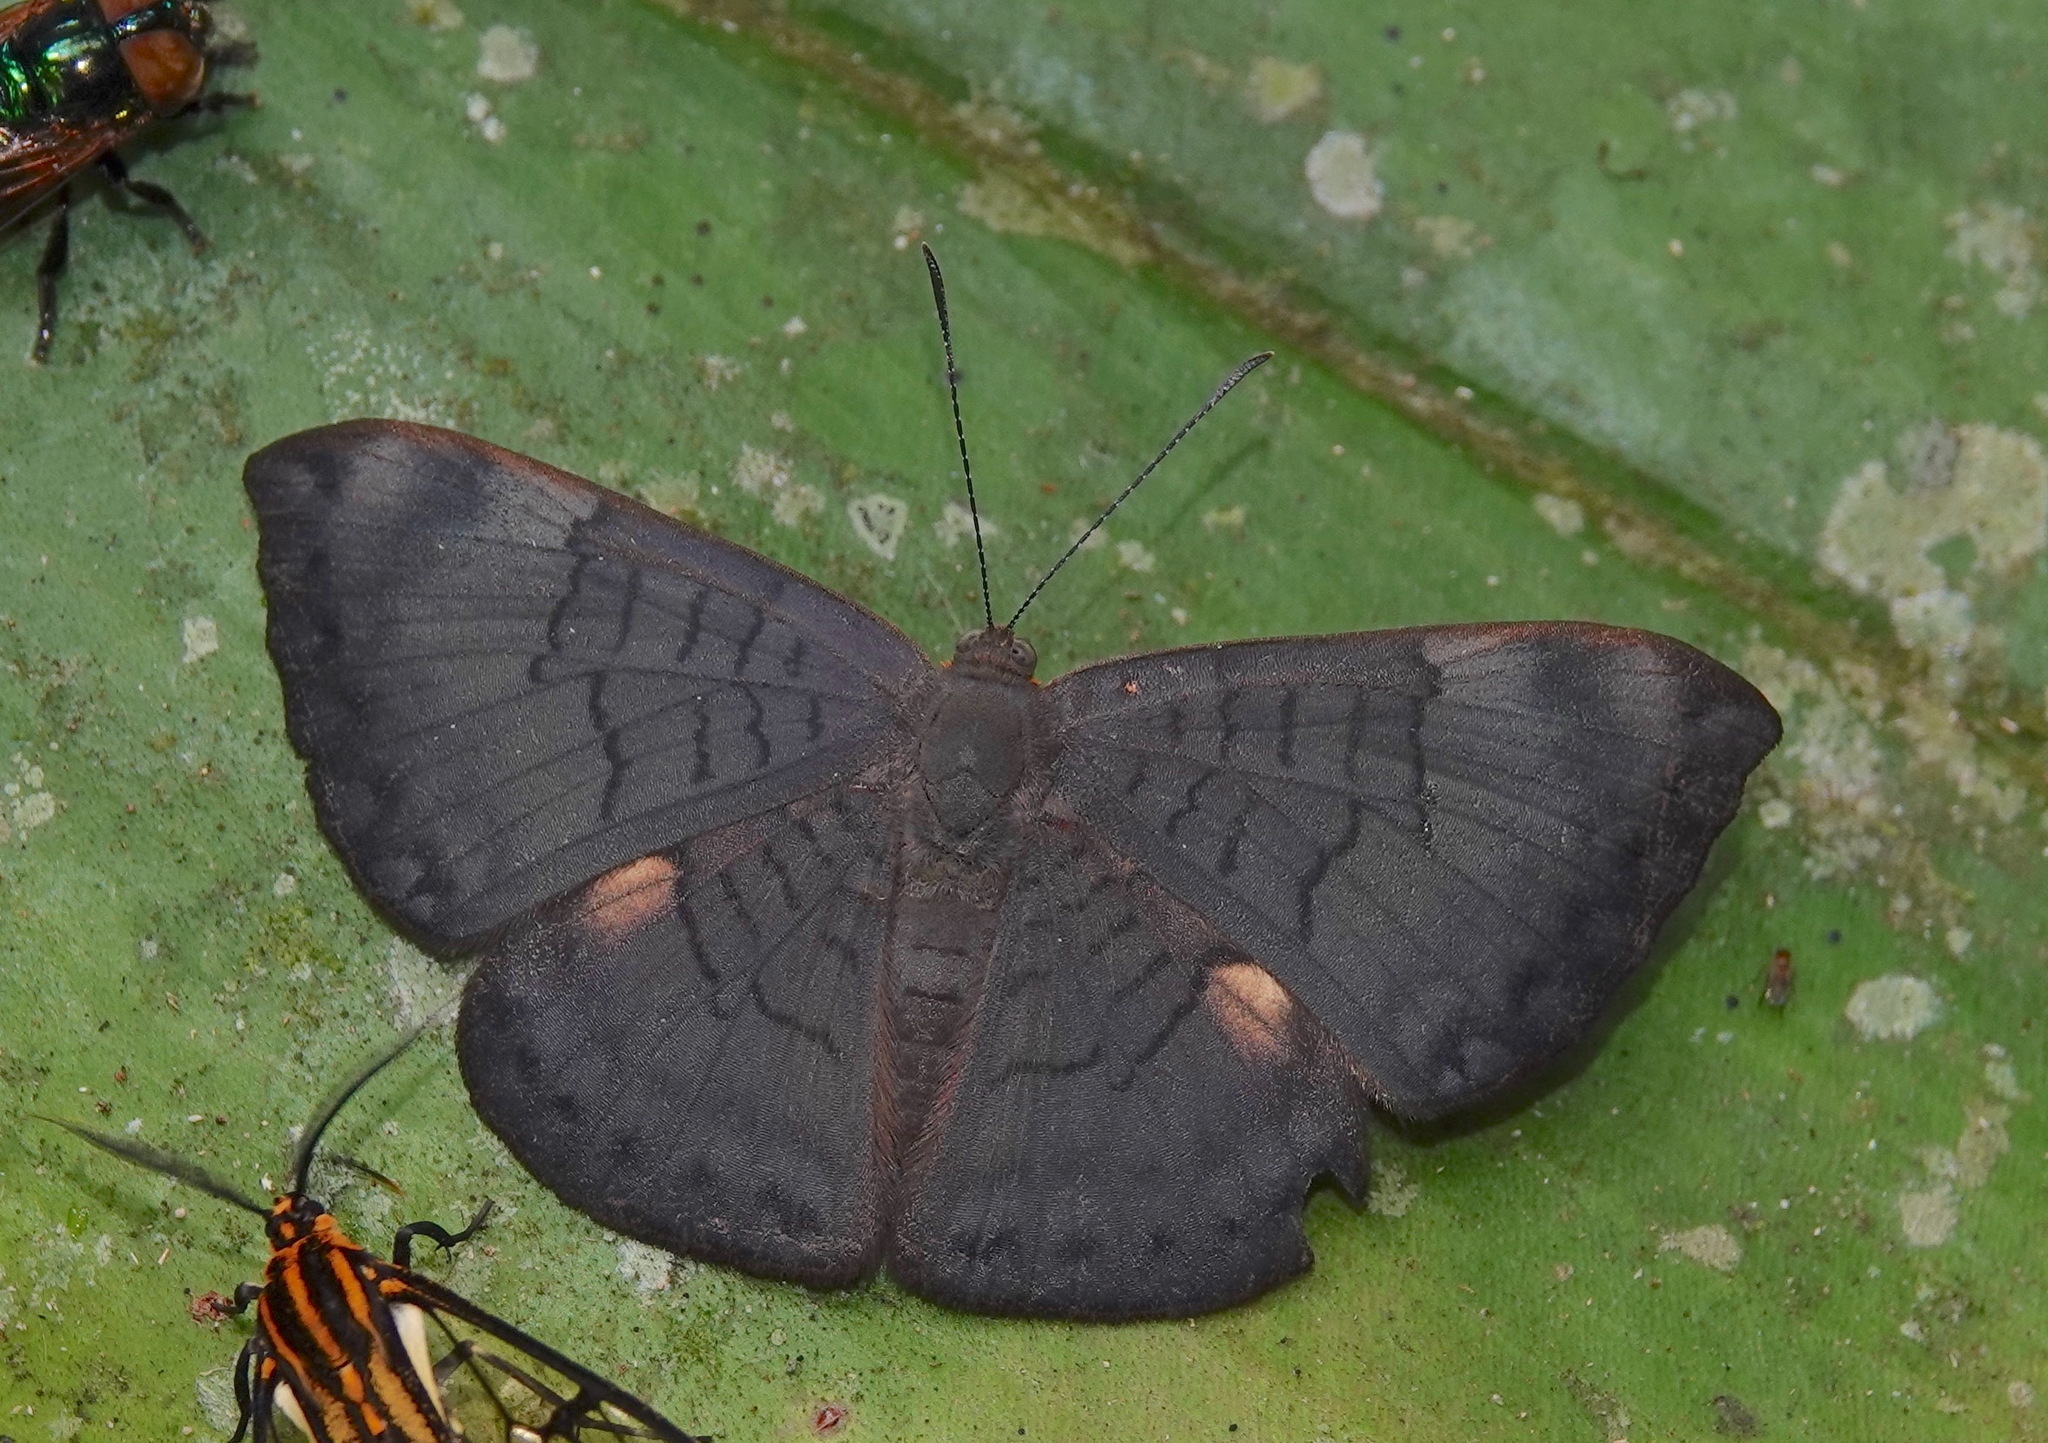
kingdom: Animalia
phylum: Arthropoda
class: Insecta
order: Lepidoptera
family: Lycaenidae
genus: Emesis
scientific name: Emesis lucinda
